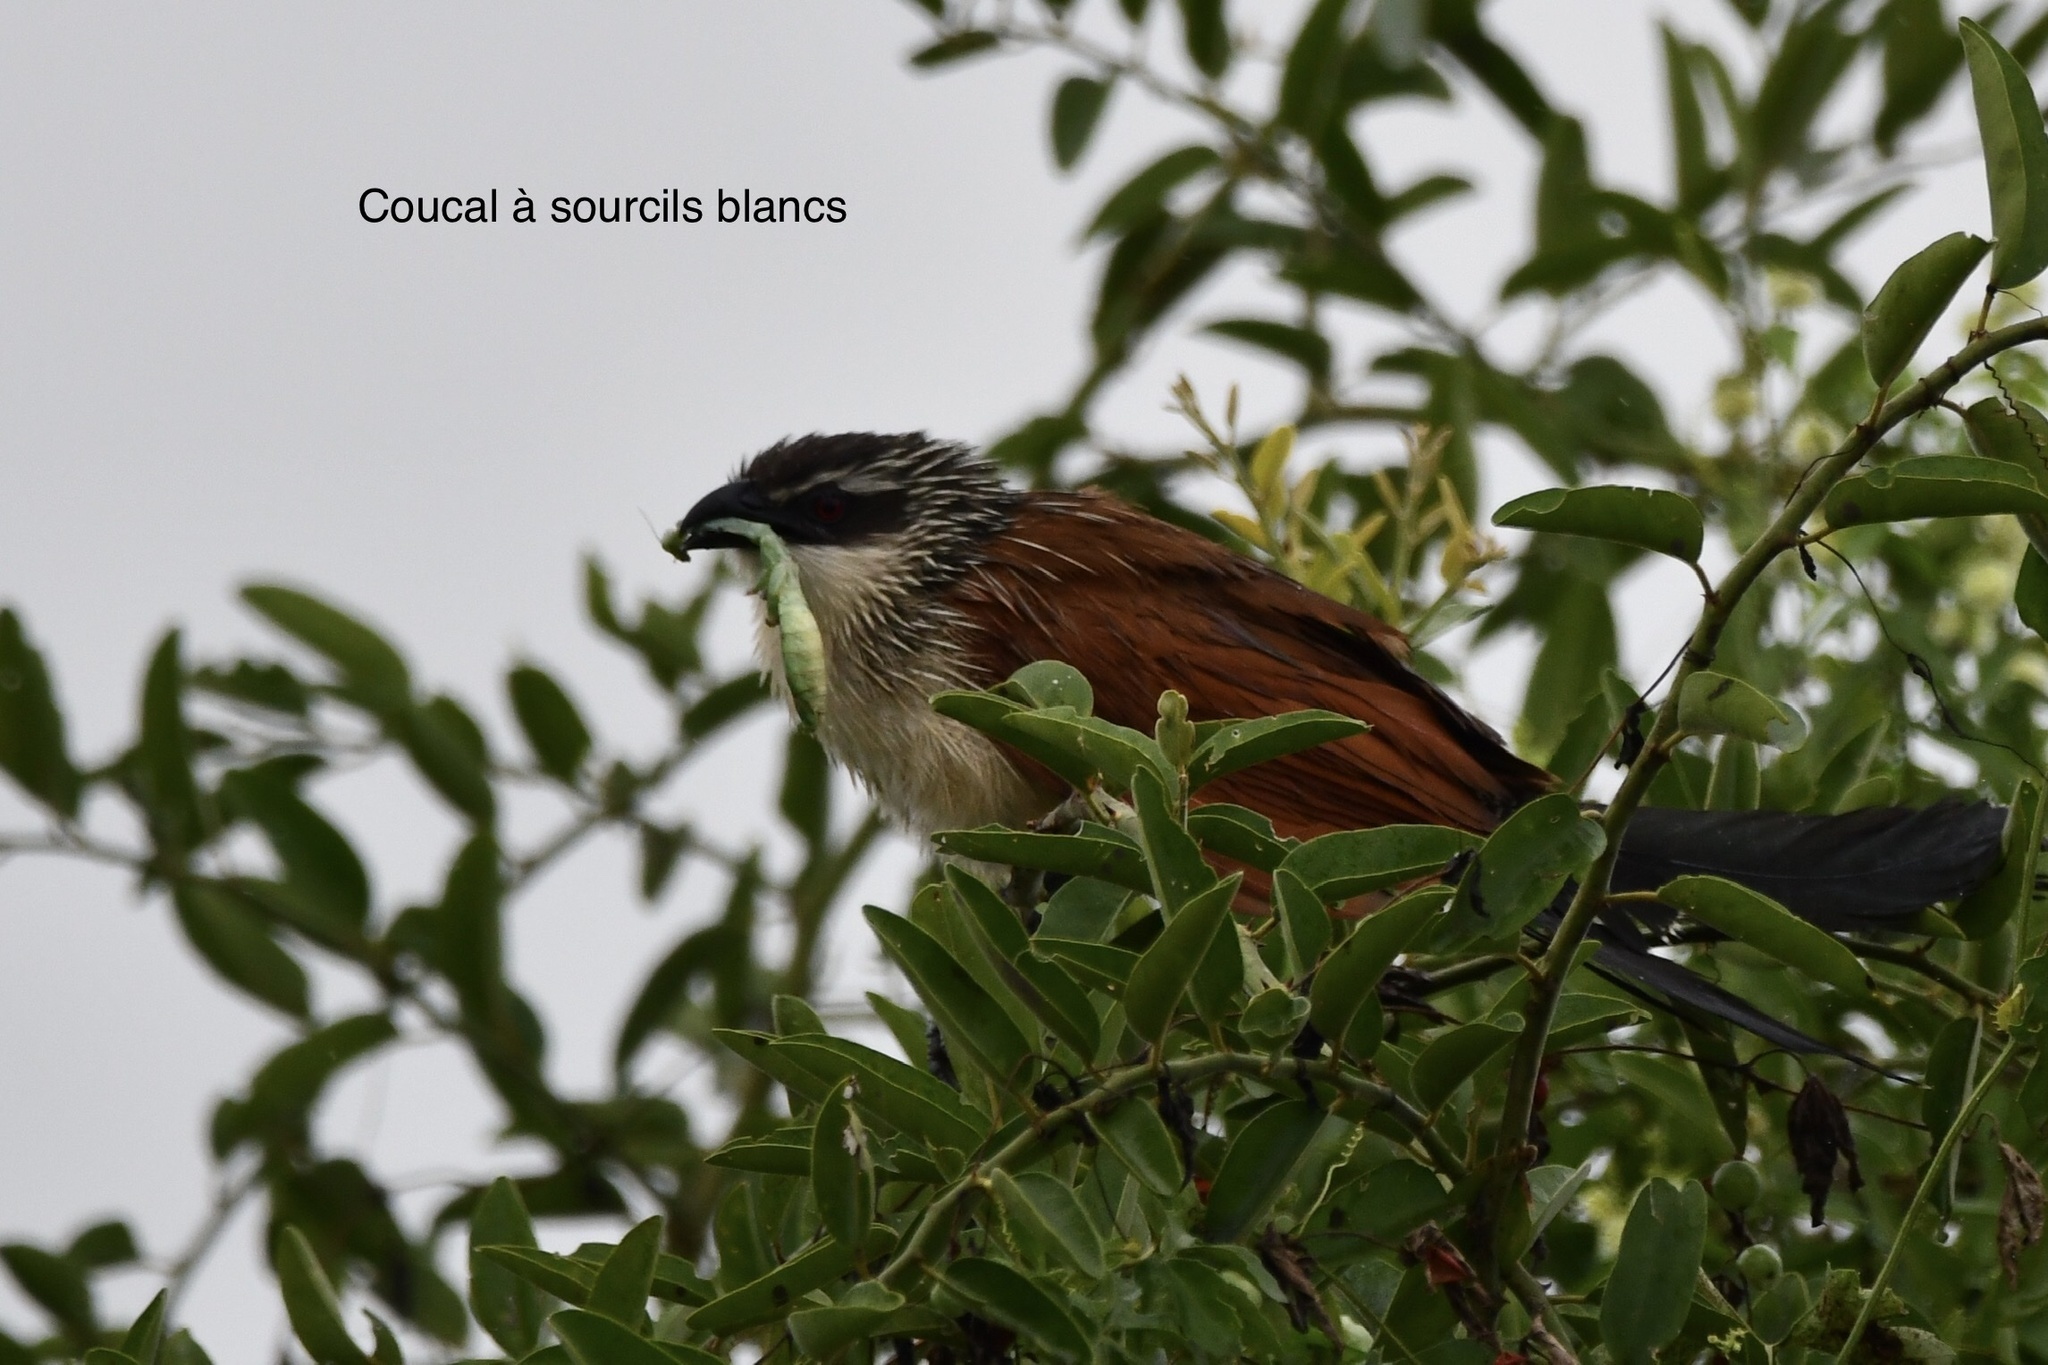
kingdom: Animalia
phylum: Chordata
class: Aves
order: Cuculiformes
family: Cuculidae
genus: Centropus
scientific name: Centropus superciliosus
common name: White-browed coucal
